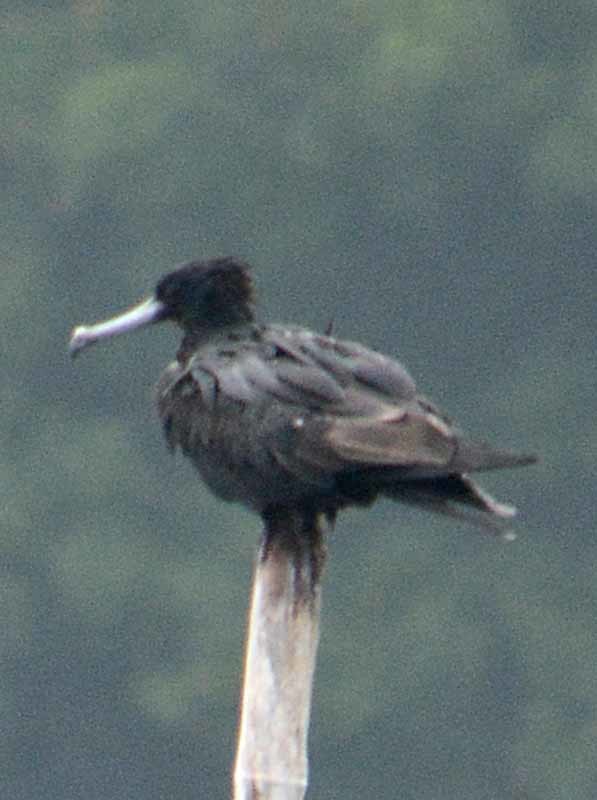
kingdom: Animalia
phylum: Chordata
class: Aves
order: Suliformes
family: Fregatidae
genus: Fregata
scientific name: Fregata magnificens
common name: Magnificent frigatebird
